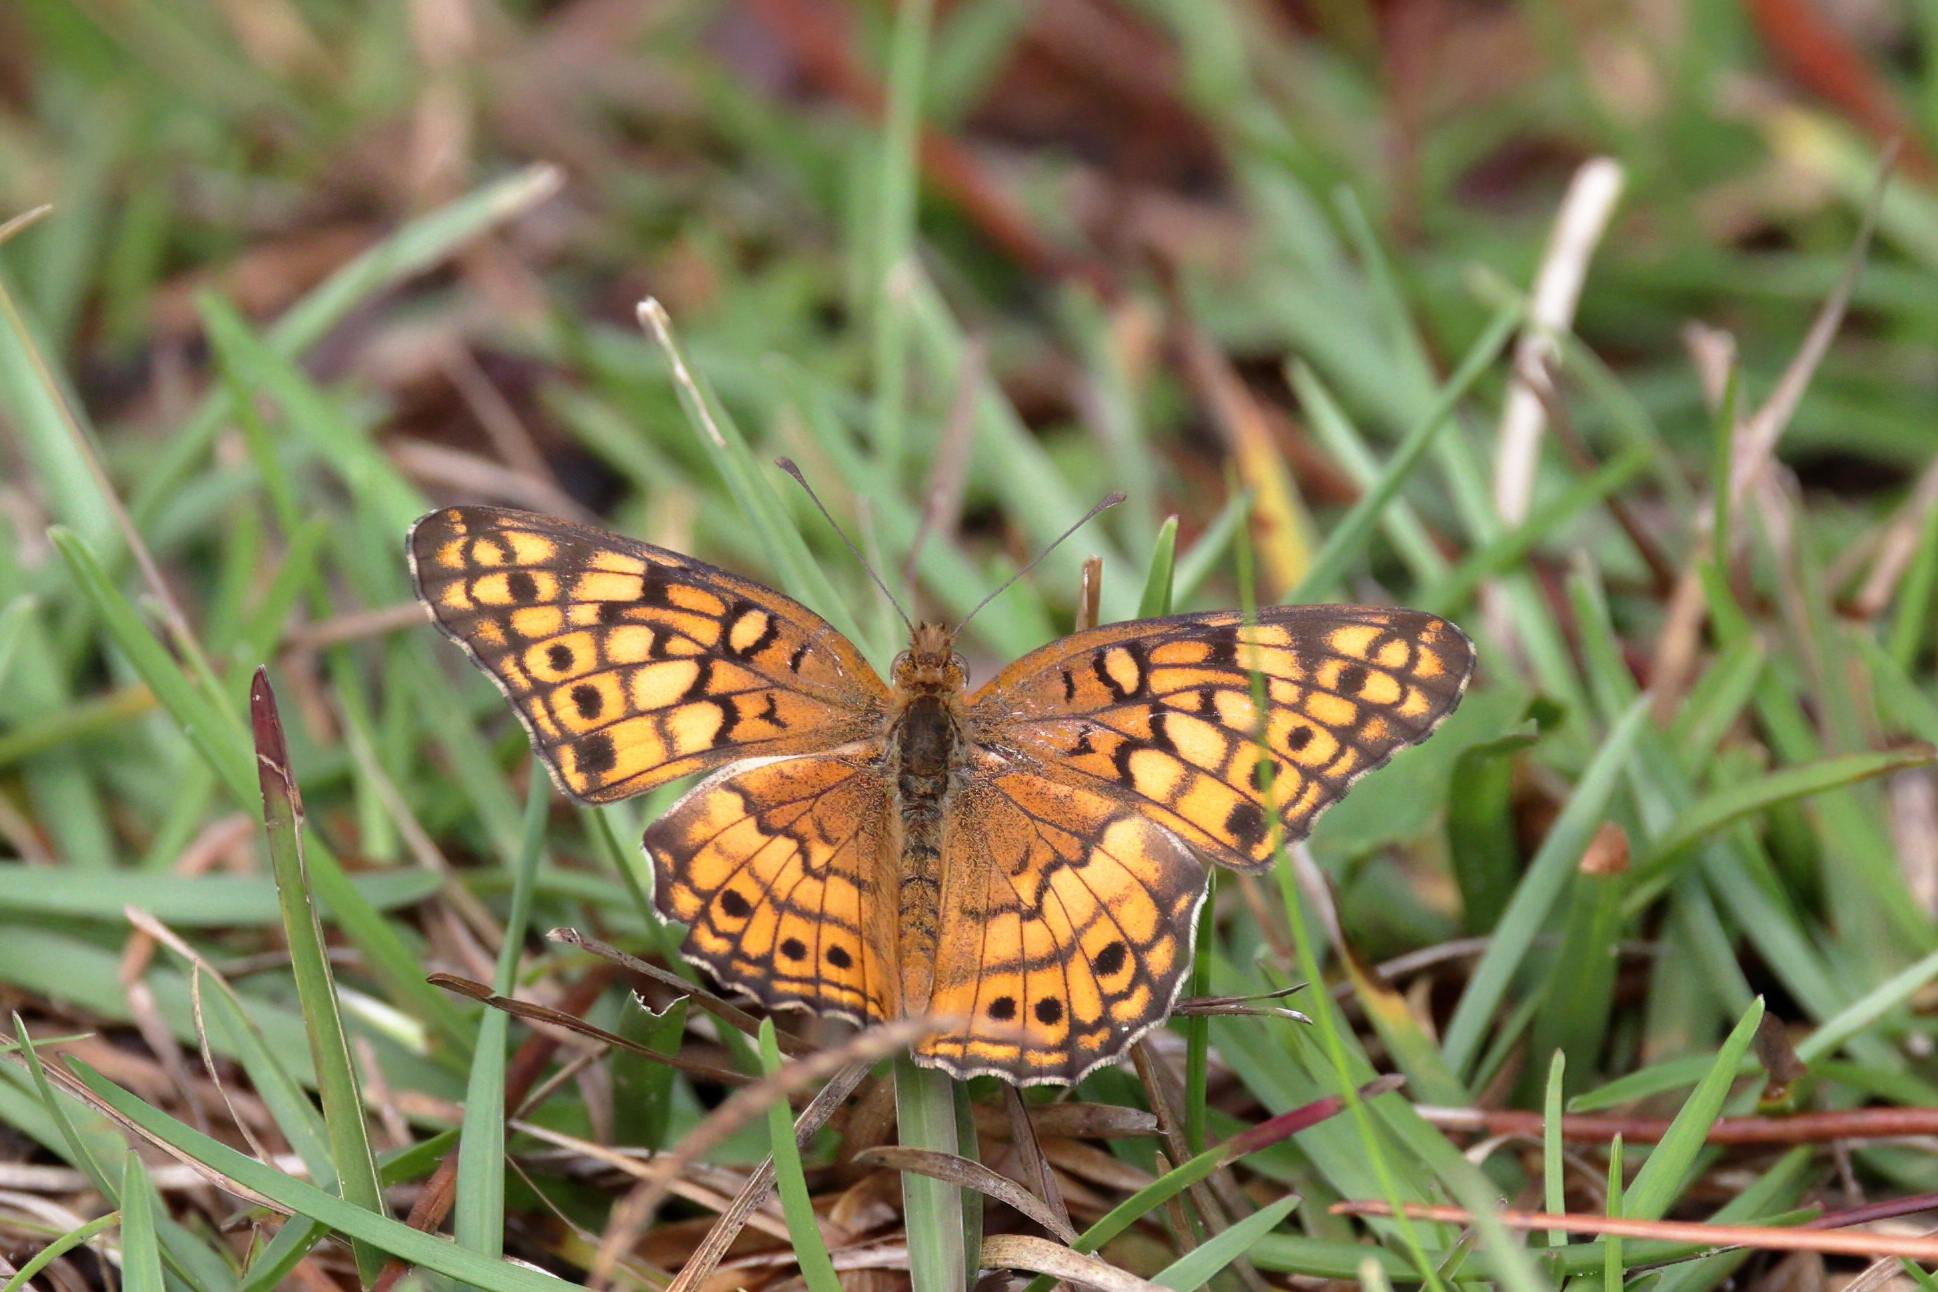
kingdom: Animalia
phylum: Arthropoda
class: Insecta
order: Lepidoptera
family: Nymphalidae
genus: Euptoieta
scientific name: Euptoieta claudia
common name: Variegated fritillary
